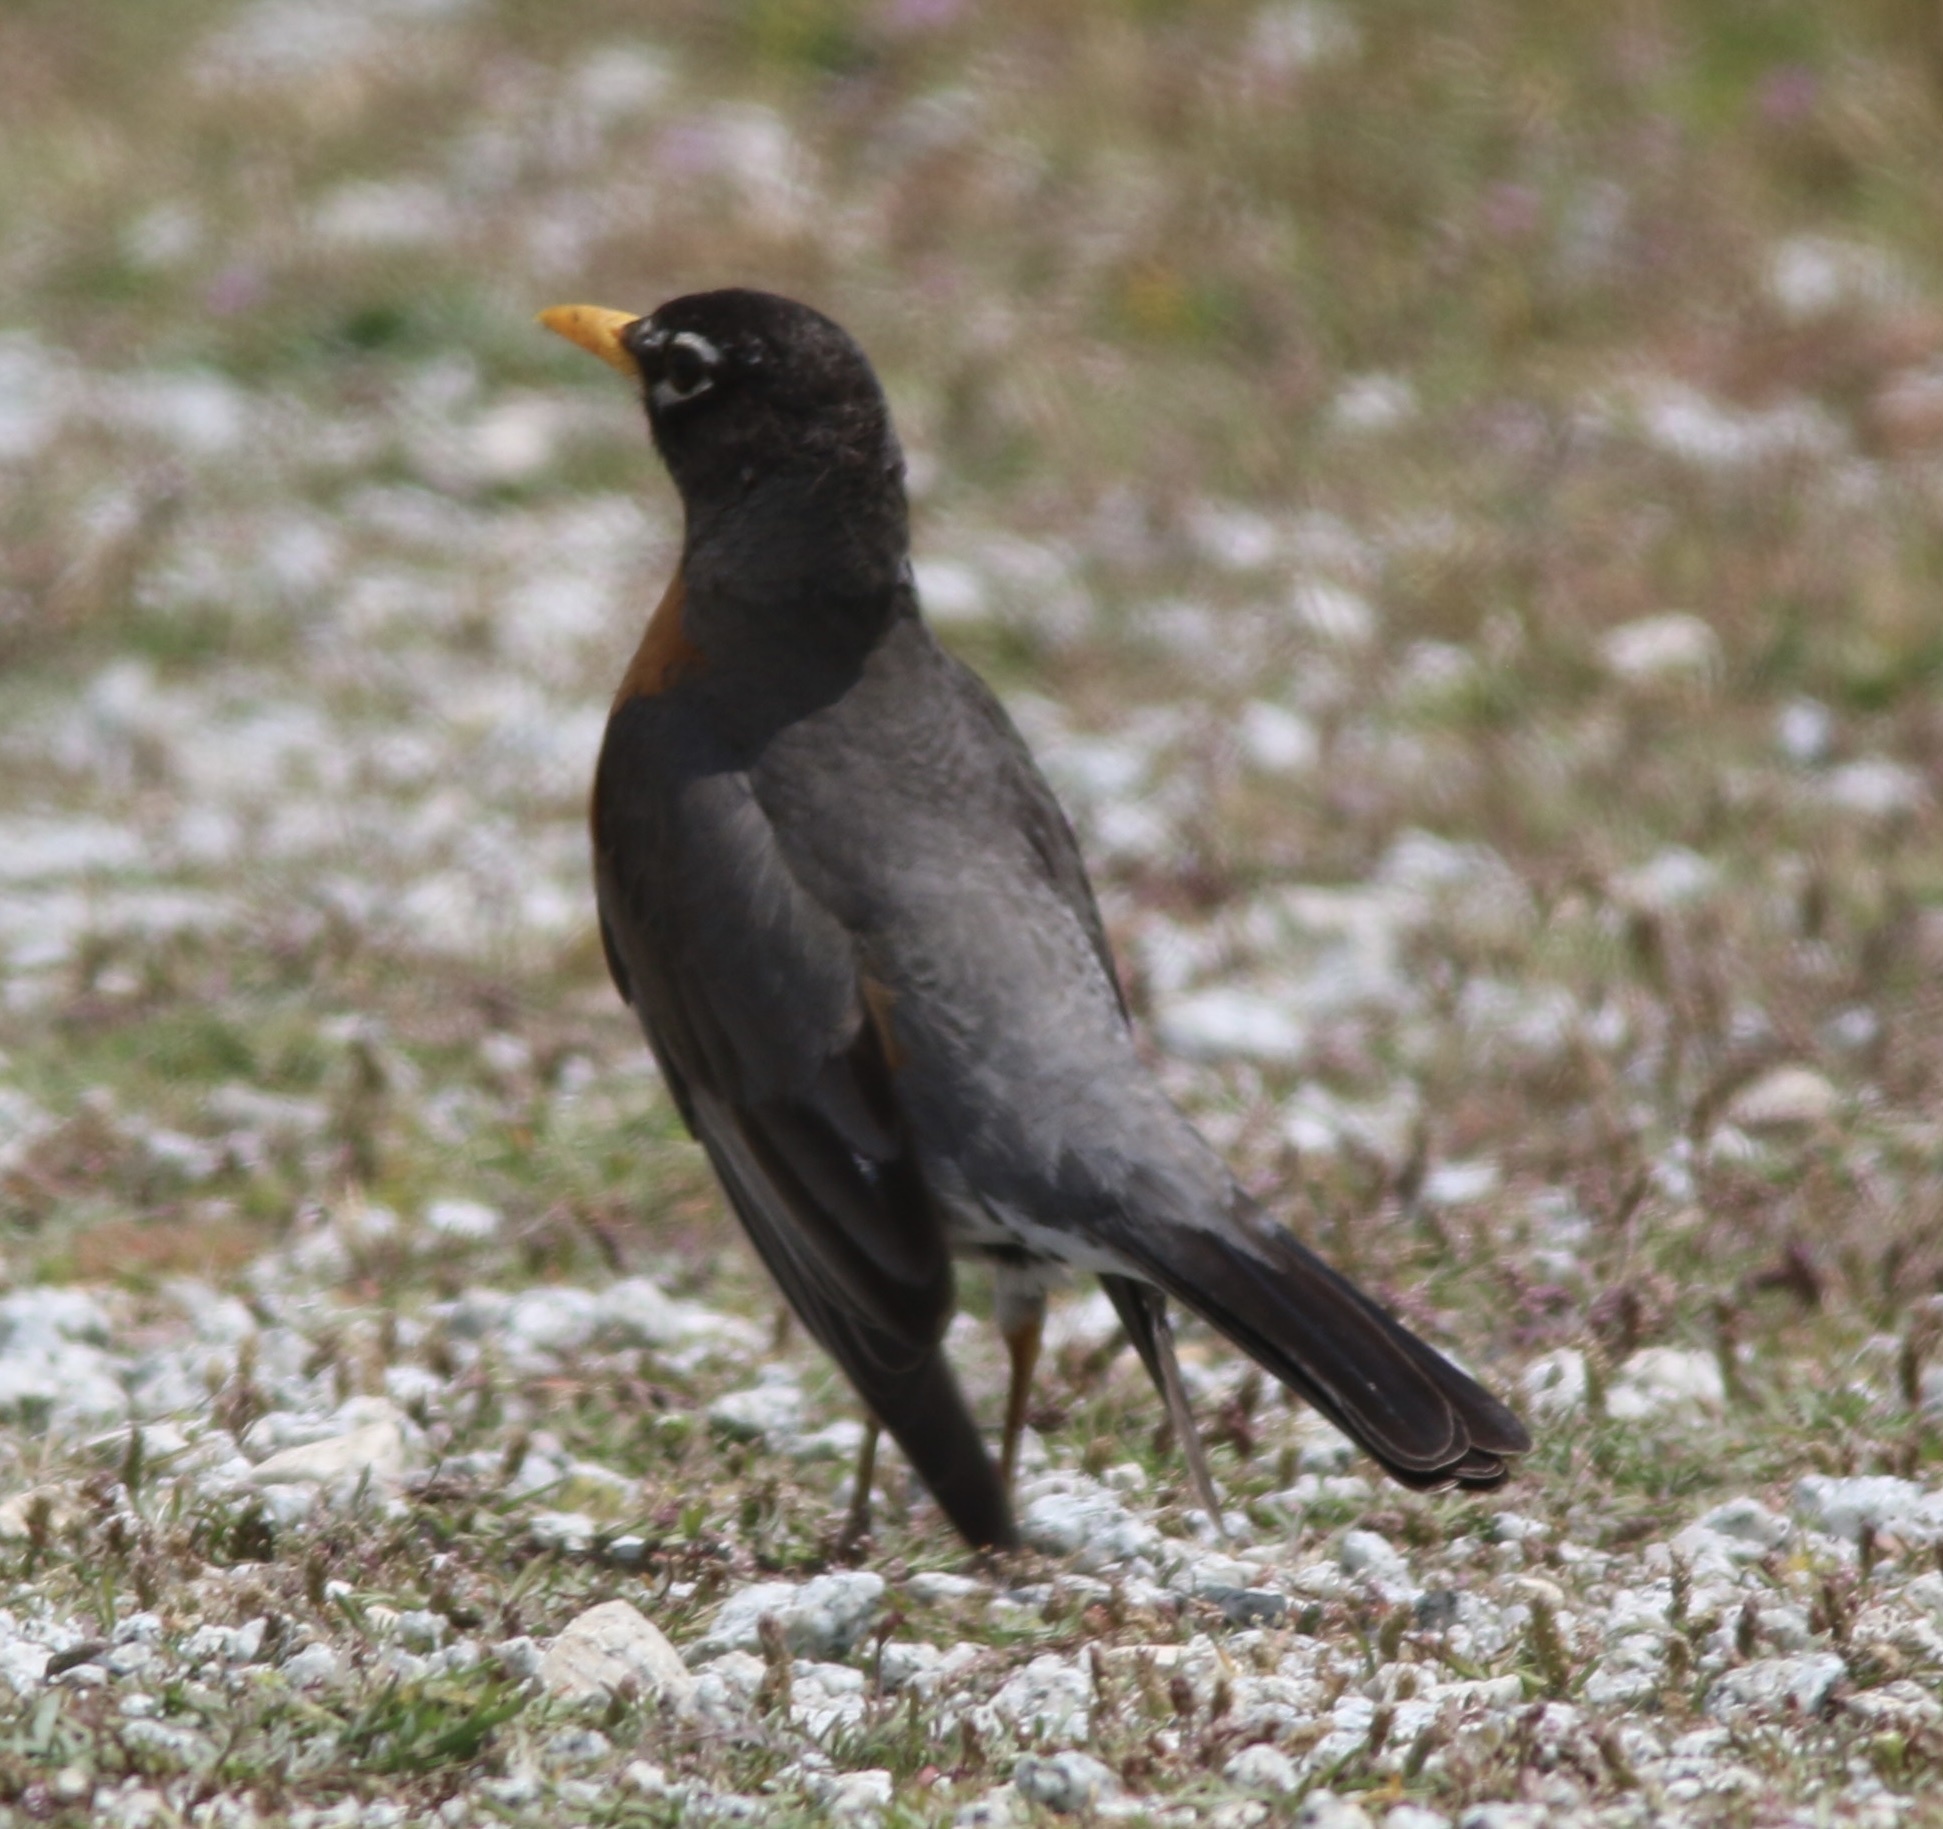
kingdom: Animalia
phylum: Chordata
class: Aves
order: Passeriformes
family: Turdidae
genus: Turdus
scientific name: Turdus migratorius
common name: American robin
